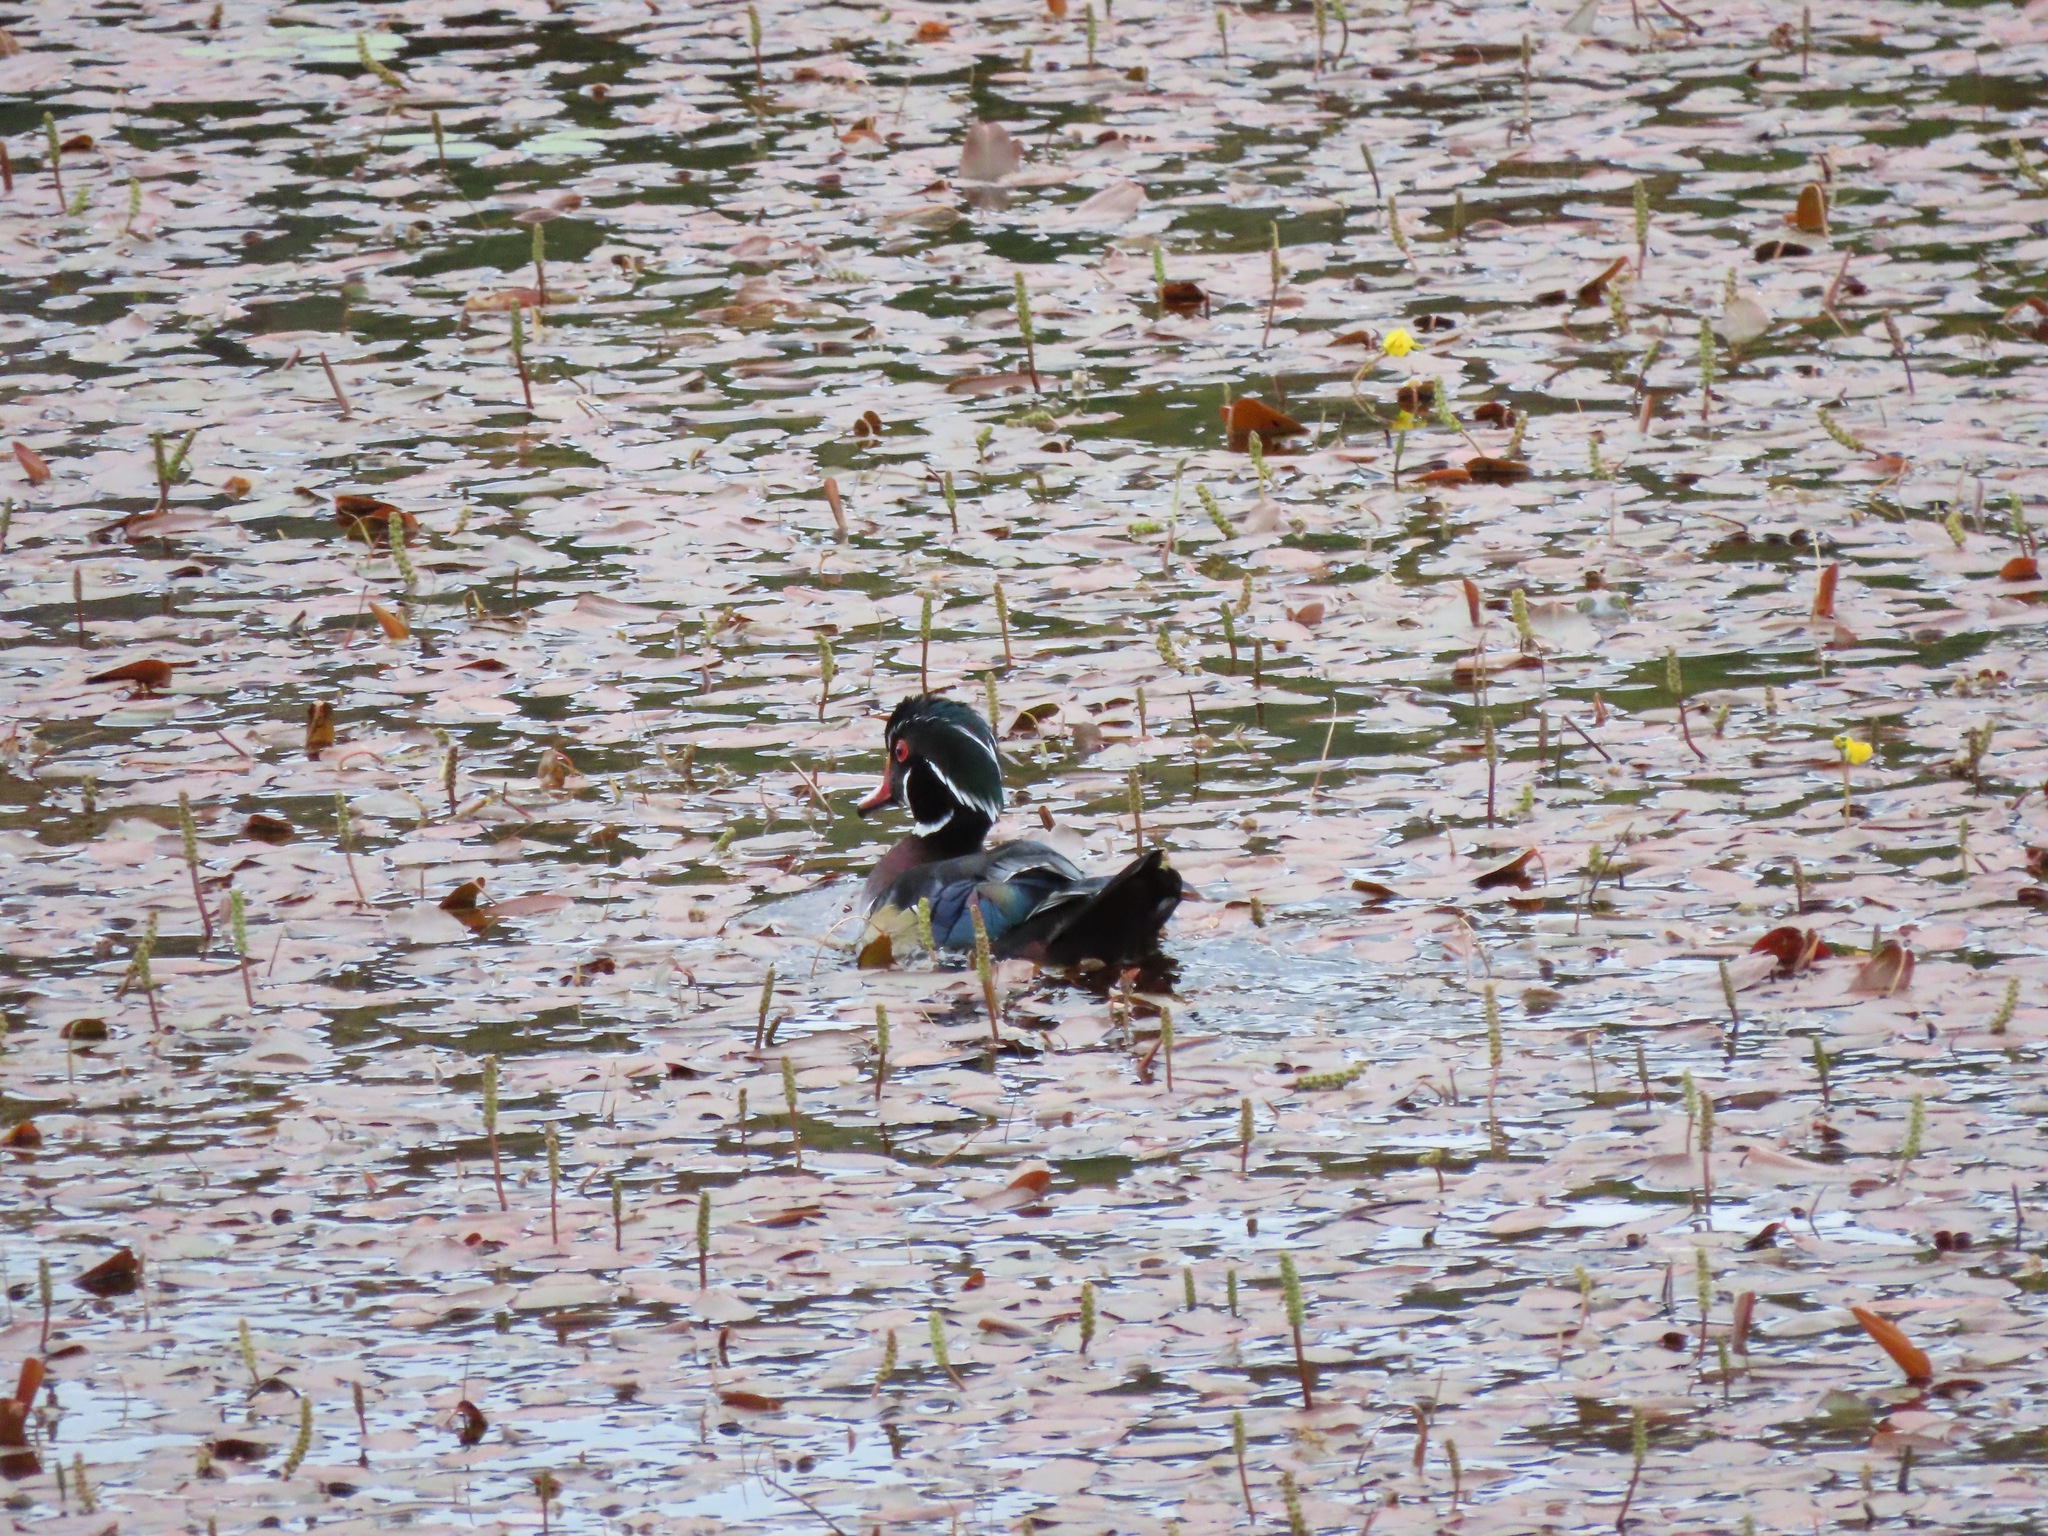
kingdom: Animalia
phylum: Chordata
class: Aves
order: Anseriformes
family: Anatidae
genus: Aix
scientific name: Aix sponsa
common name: Wood duck
